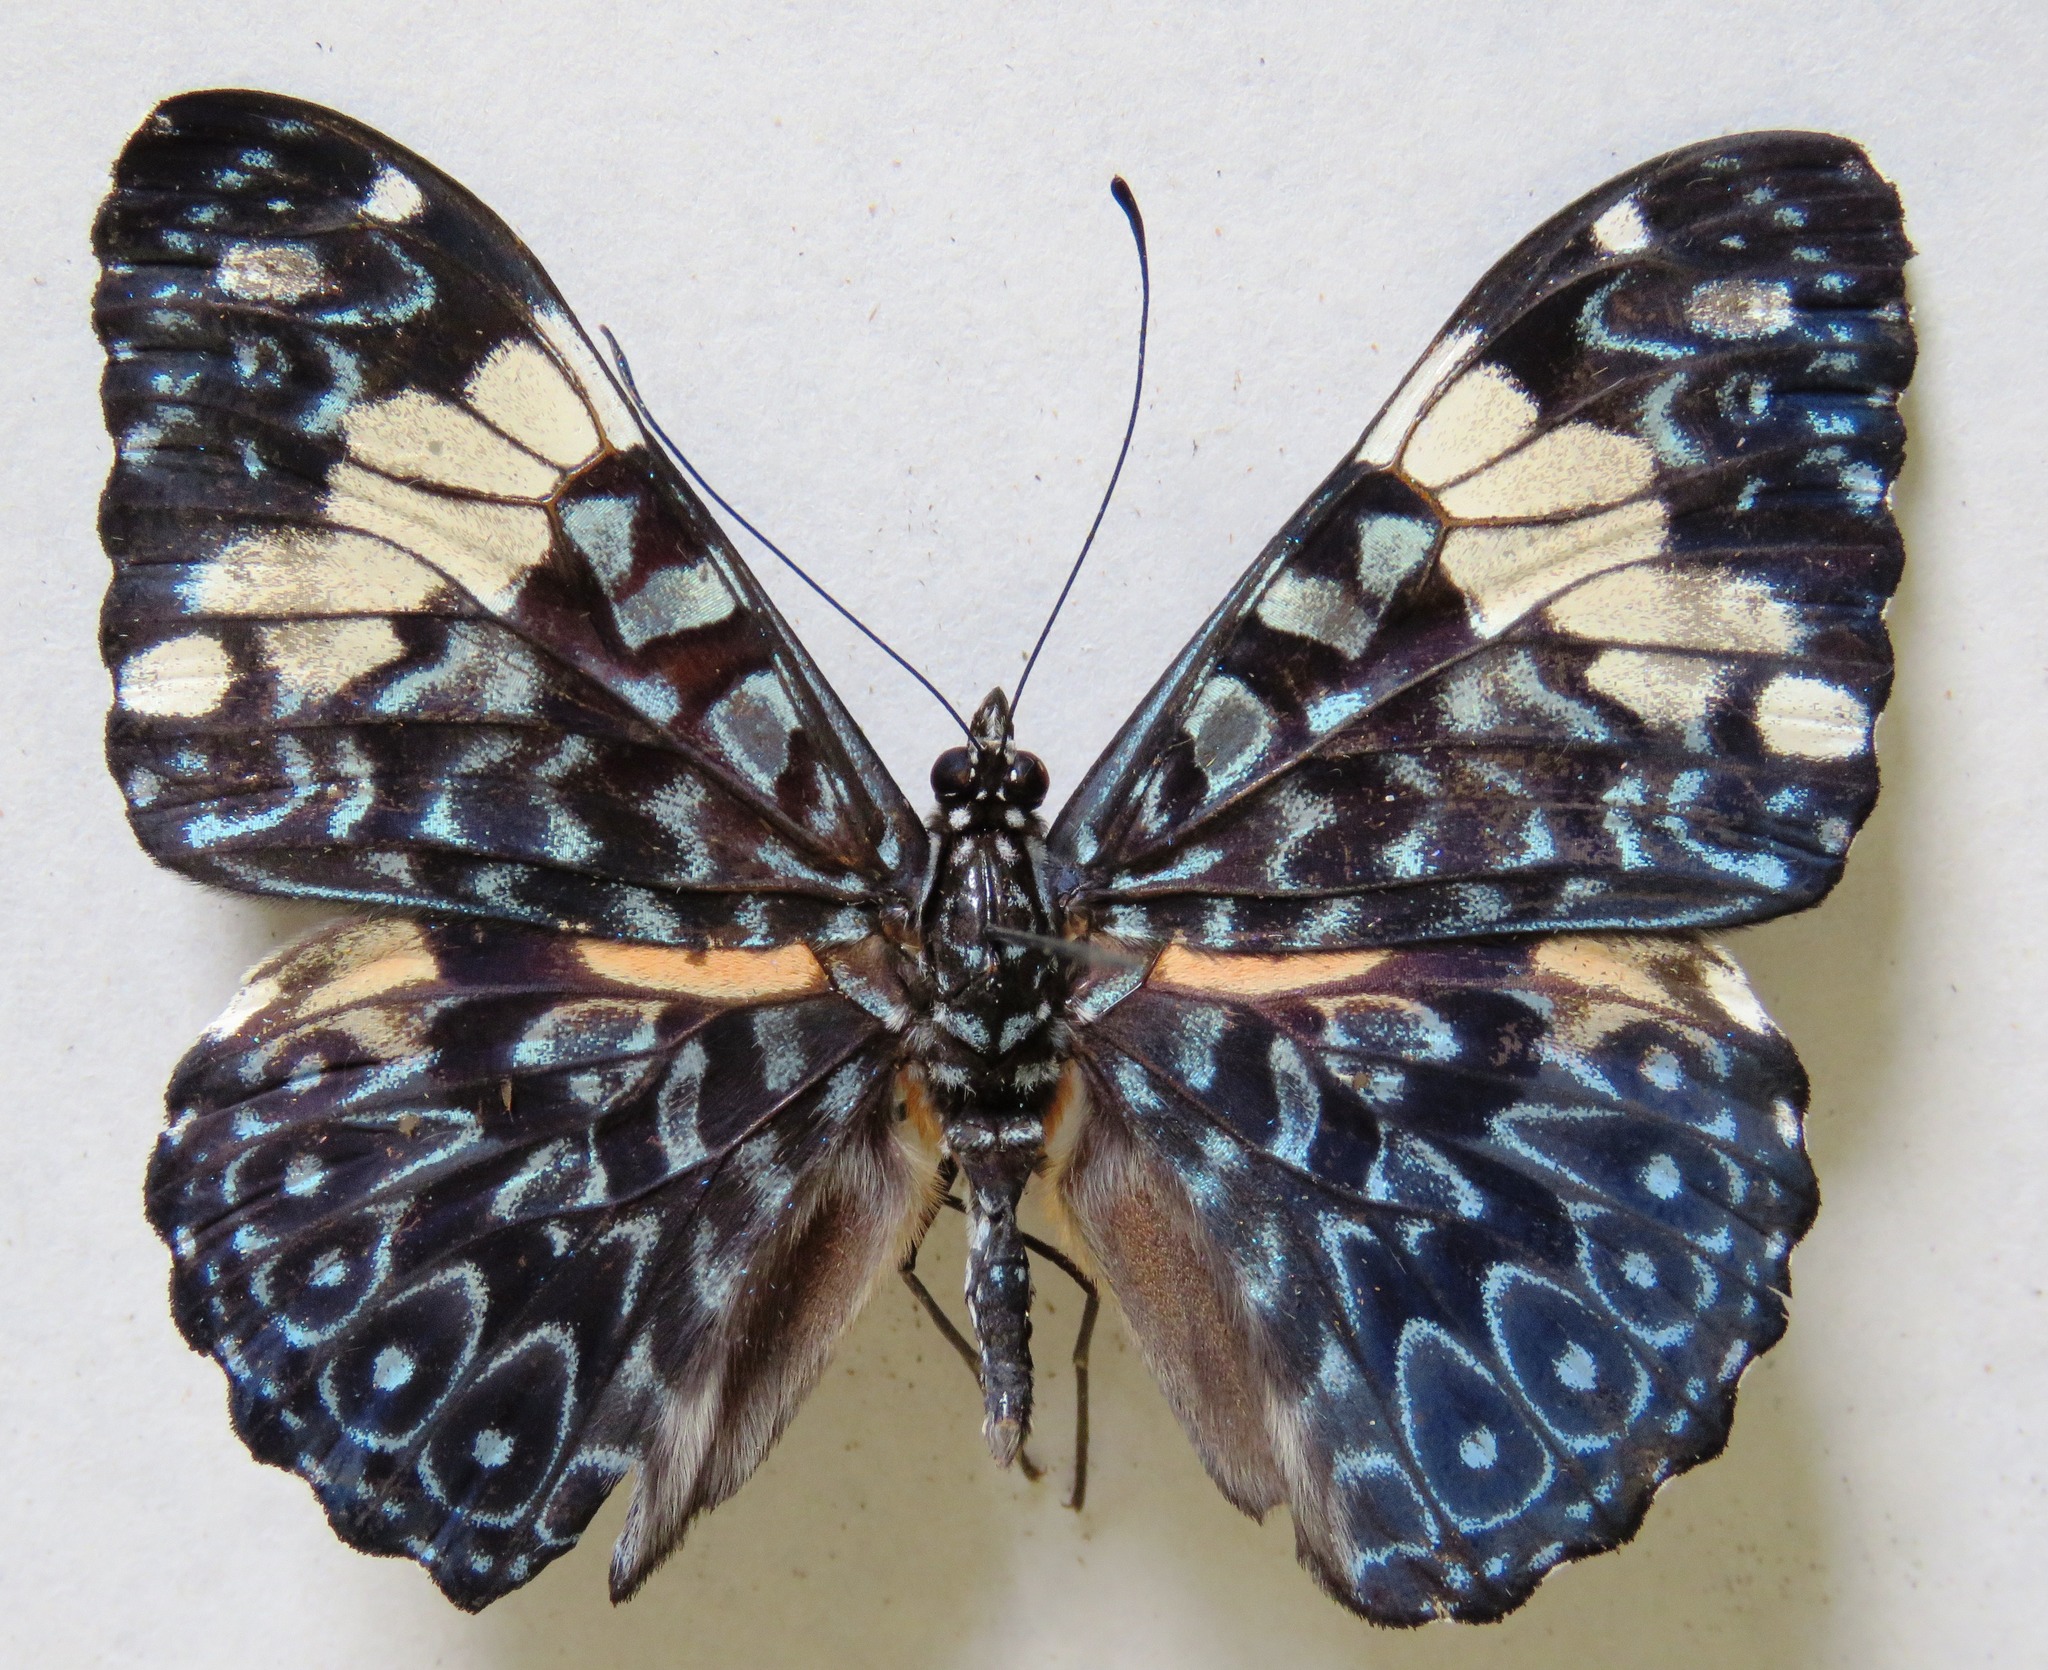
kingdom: Animalia
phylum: Arthropoda
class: Insecta
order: Lepidoptera
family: Nymphalidae
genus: Hamadryas
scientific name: Hamadryas amphinome
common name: Red cracker
